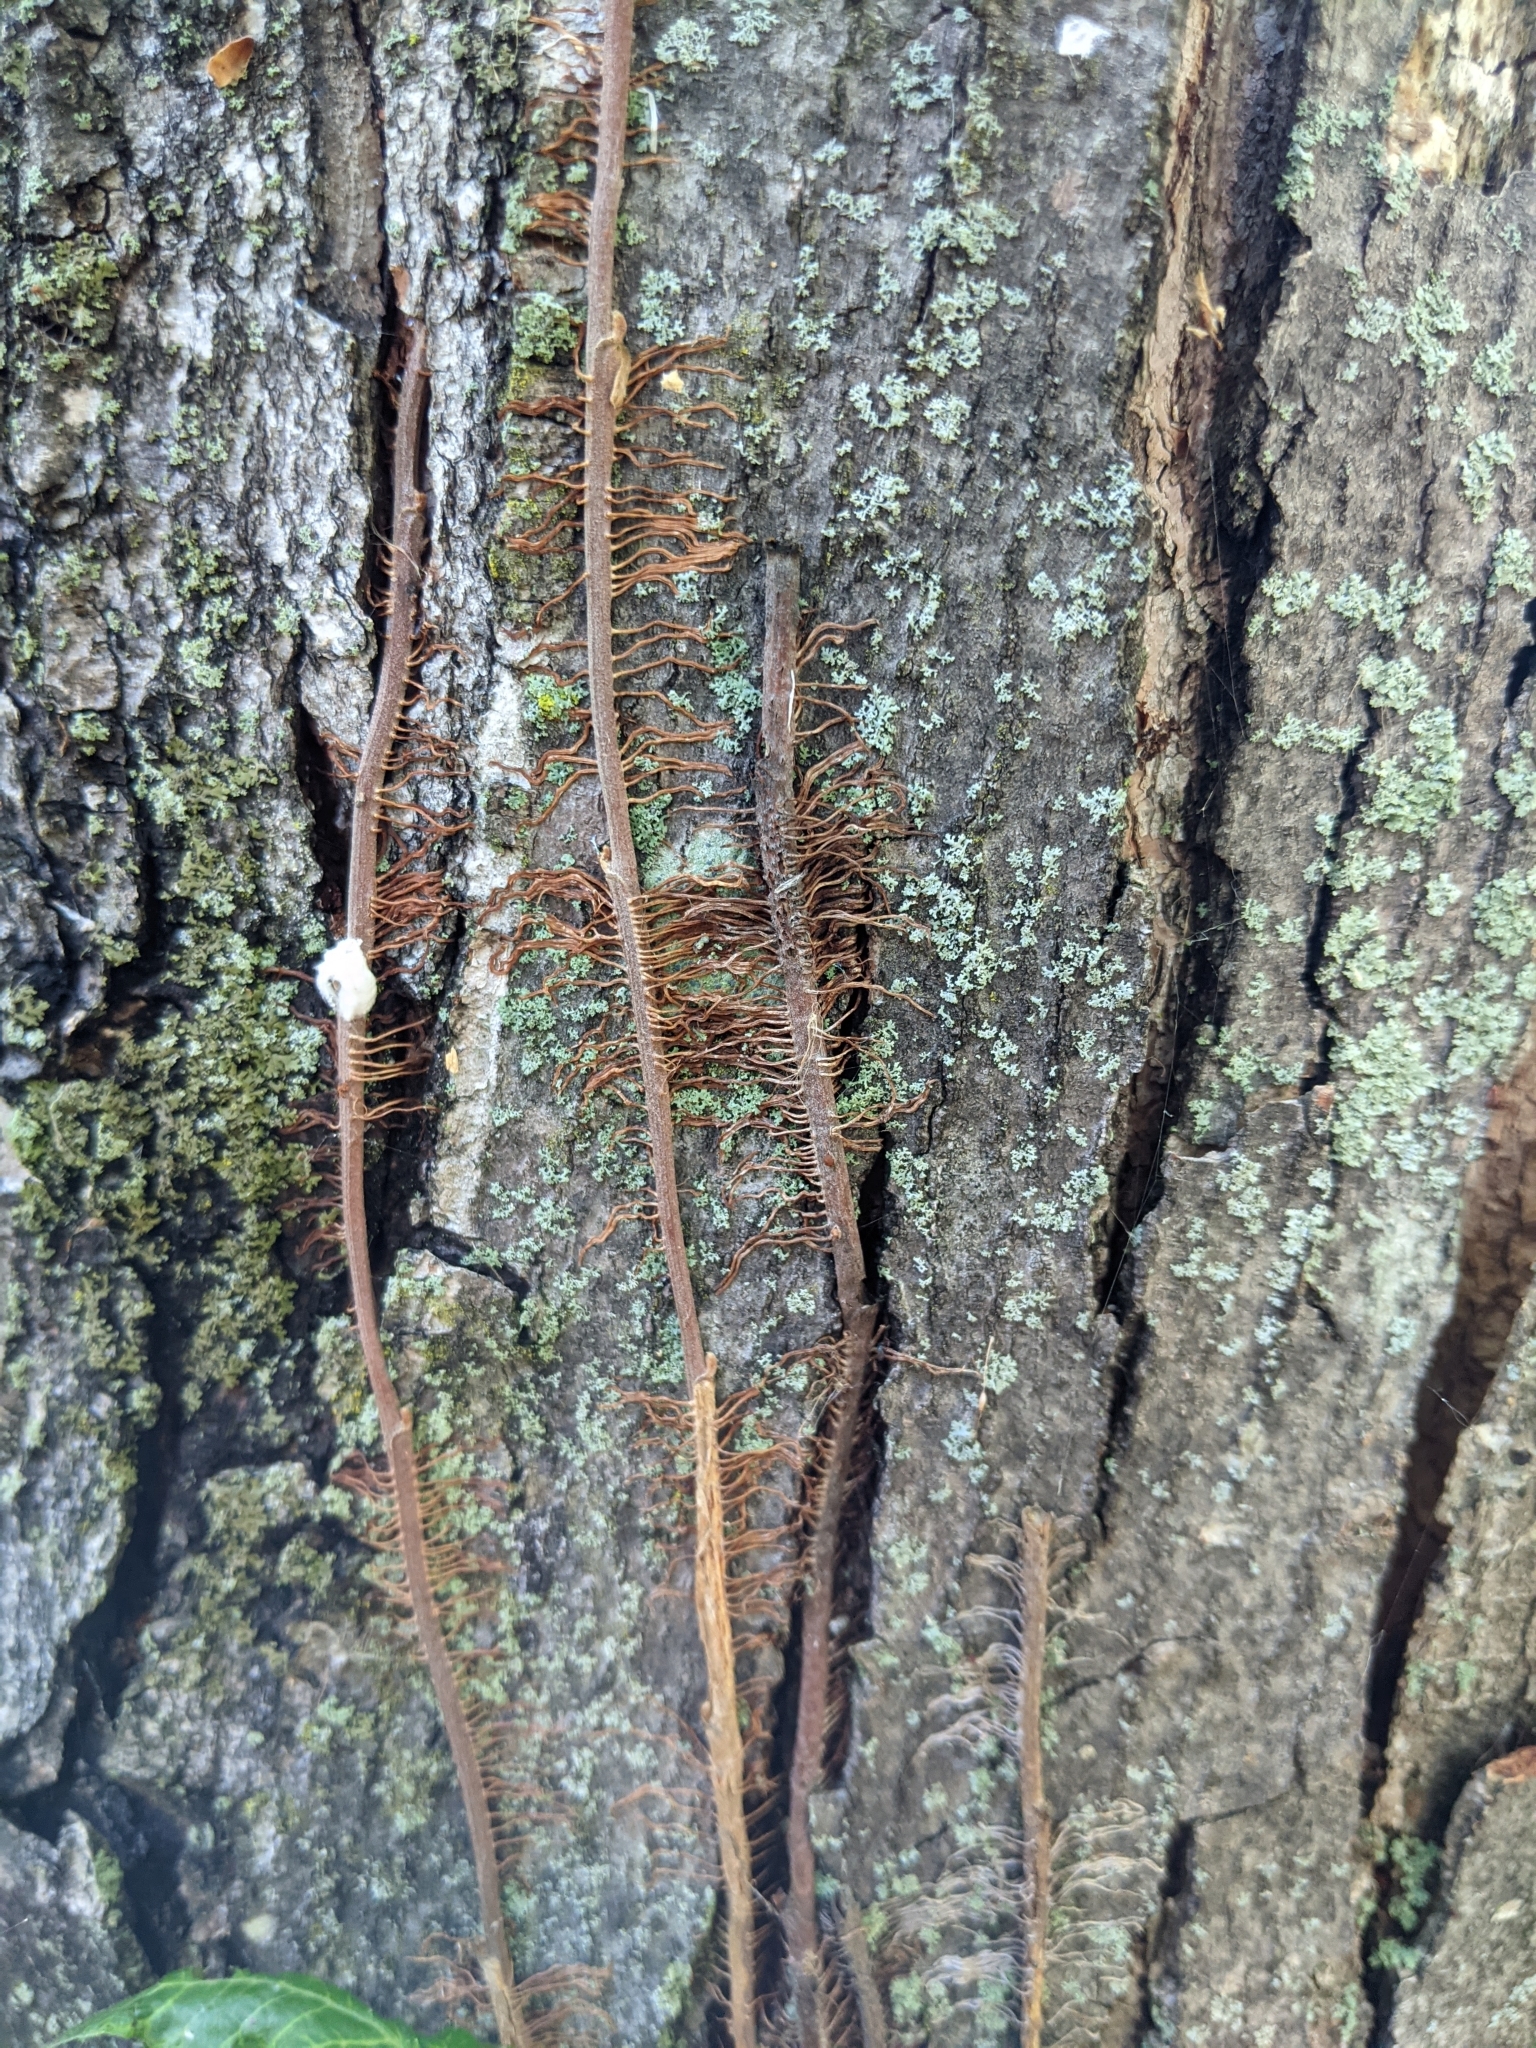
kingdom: Plantae
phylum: Tracheophyta
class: Magnoliopsida
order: Sapindales
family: Anacardiaceae
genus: Toxicodendron
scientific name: Toxicodendron radicans
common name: Poison ivy
